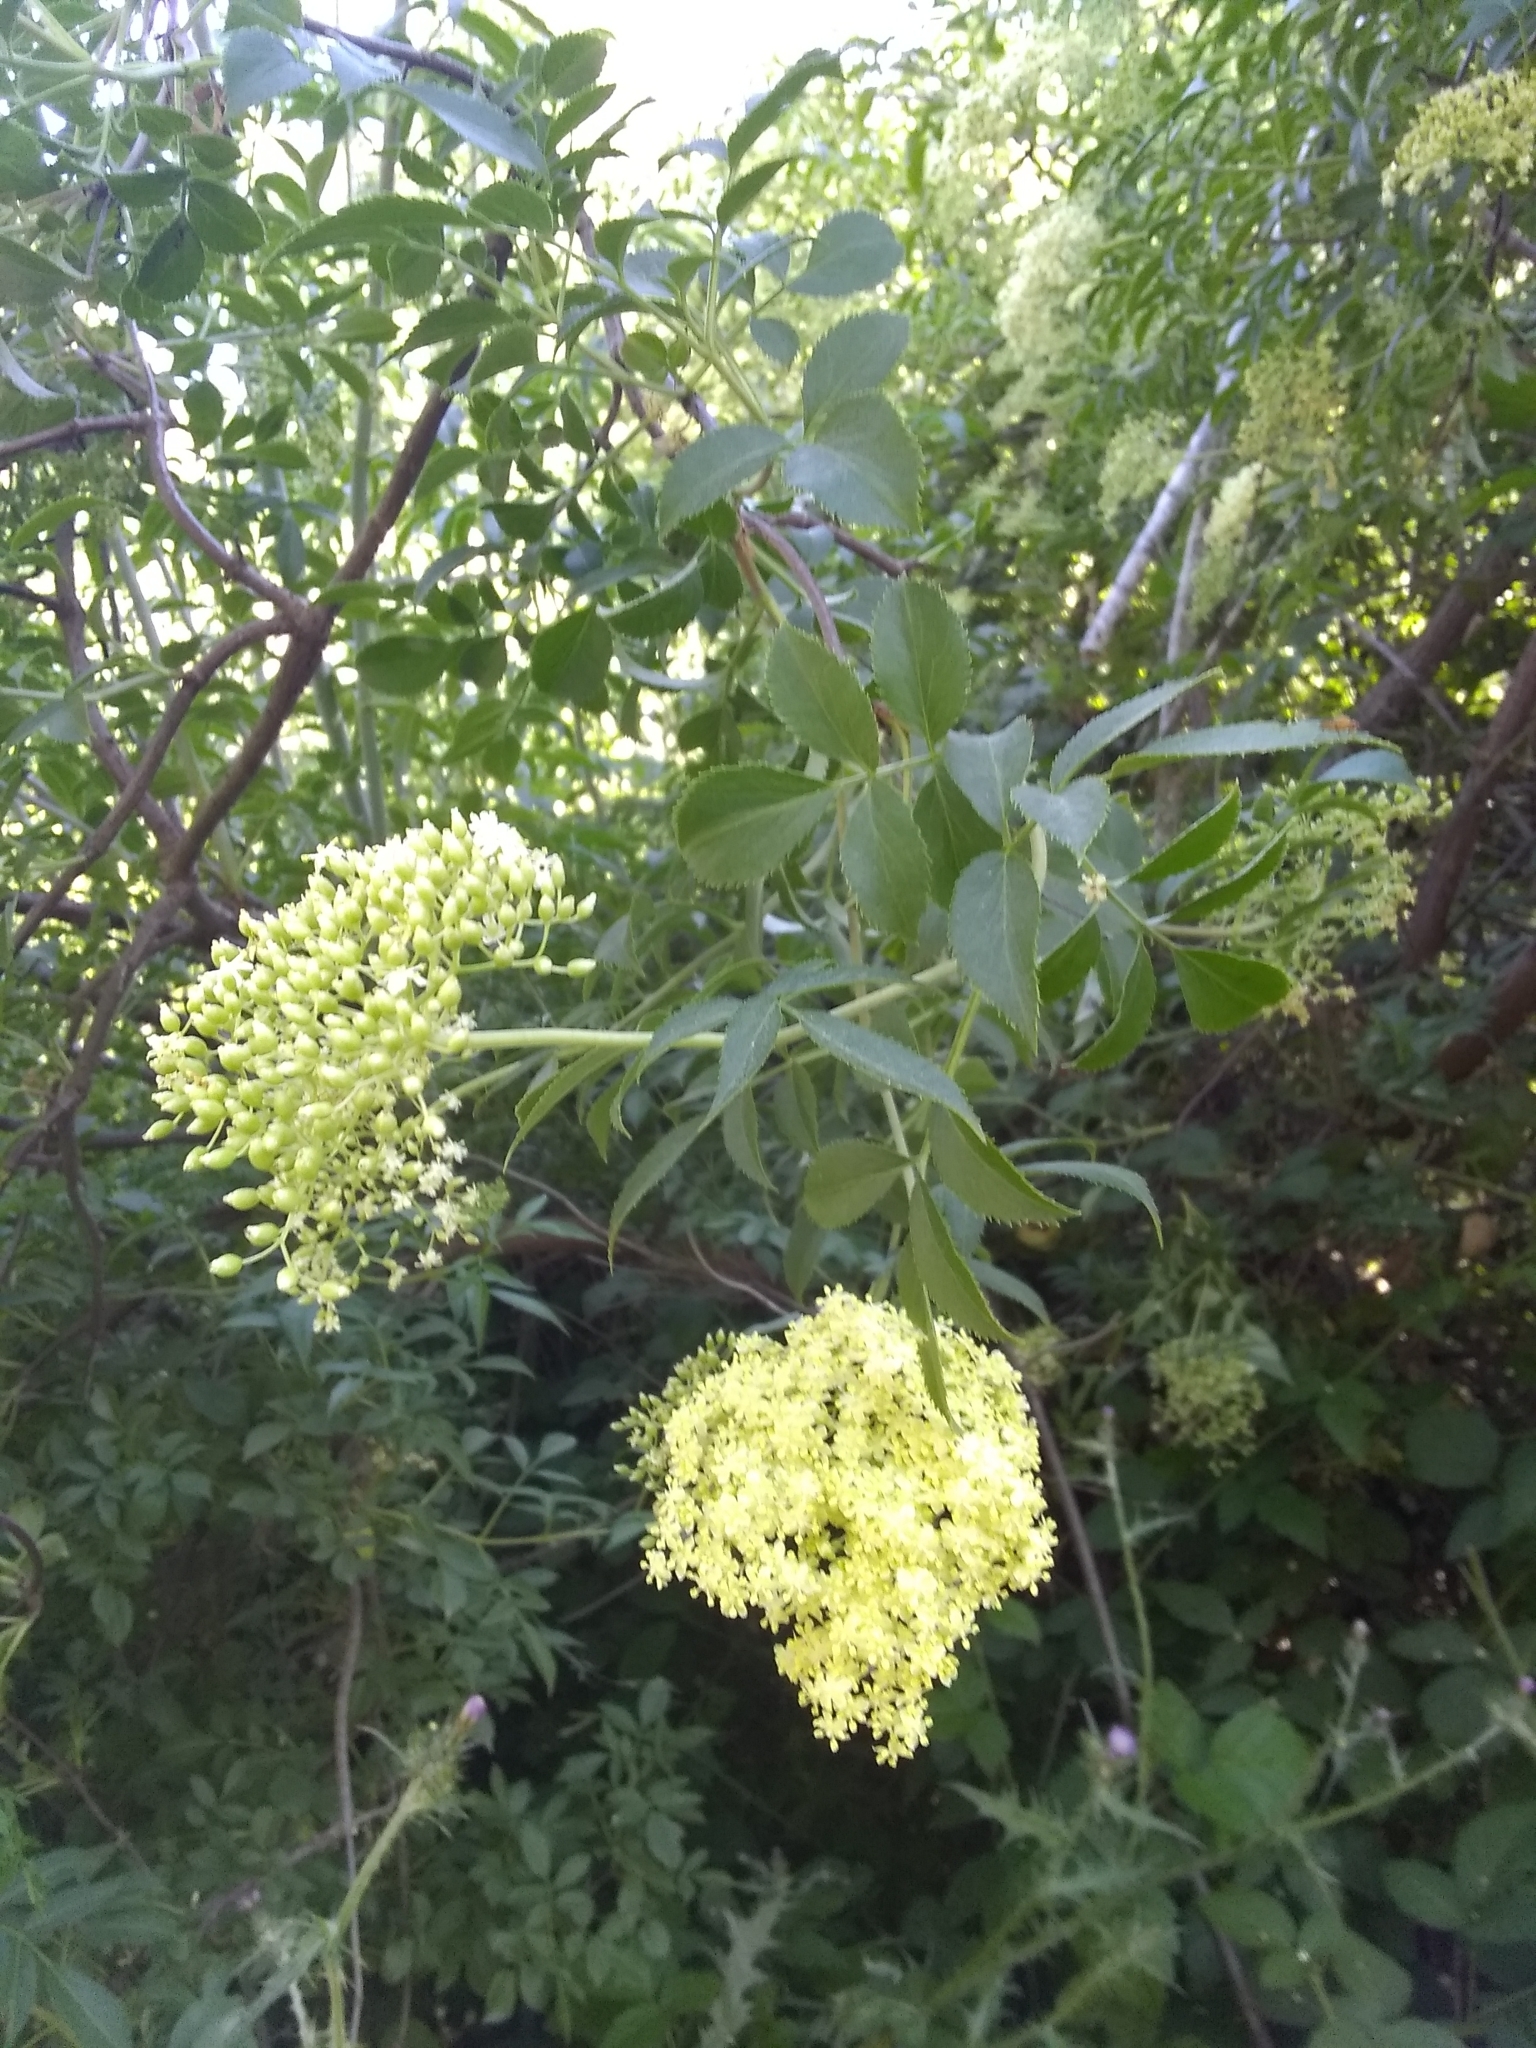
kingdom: Plantae
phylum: Tracheophyta
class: Magnoliopsida
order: Dipsacales
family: Viburnaceae
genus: Sambucus
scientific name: Sambucus cerulea
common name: Blue elder
